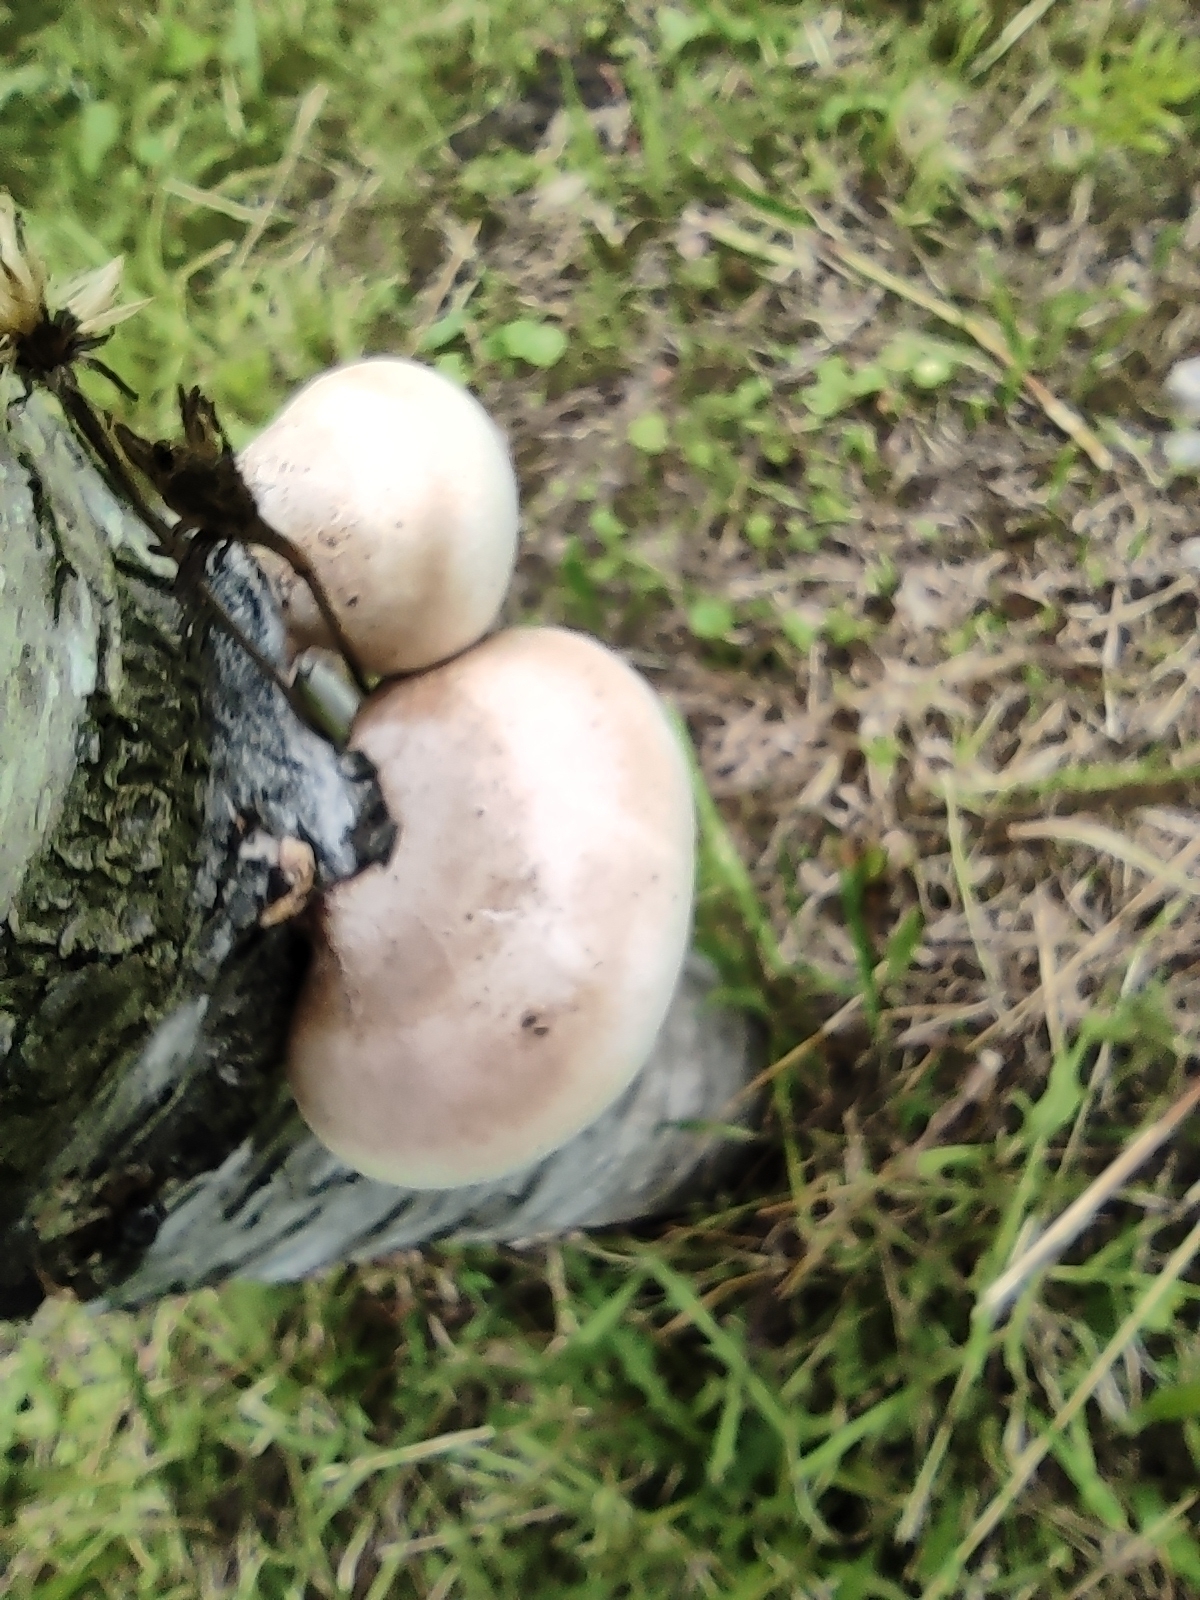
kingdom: Fungi
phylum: Basidiomycota
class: Agaricomycetes
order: Polyporales
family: Fomitopsidaceae
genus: Fomitopsis
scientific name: Fomitopsis betulina
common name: Birch polypore
